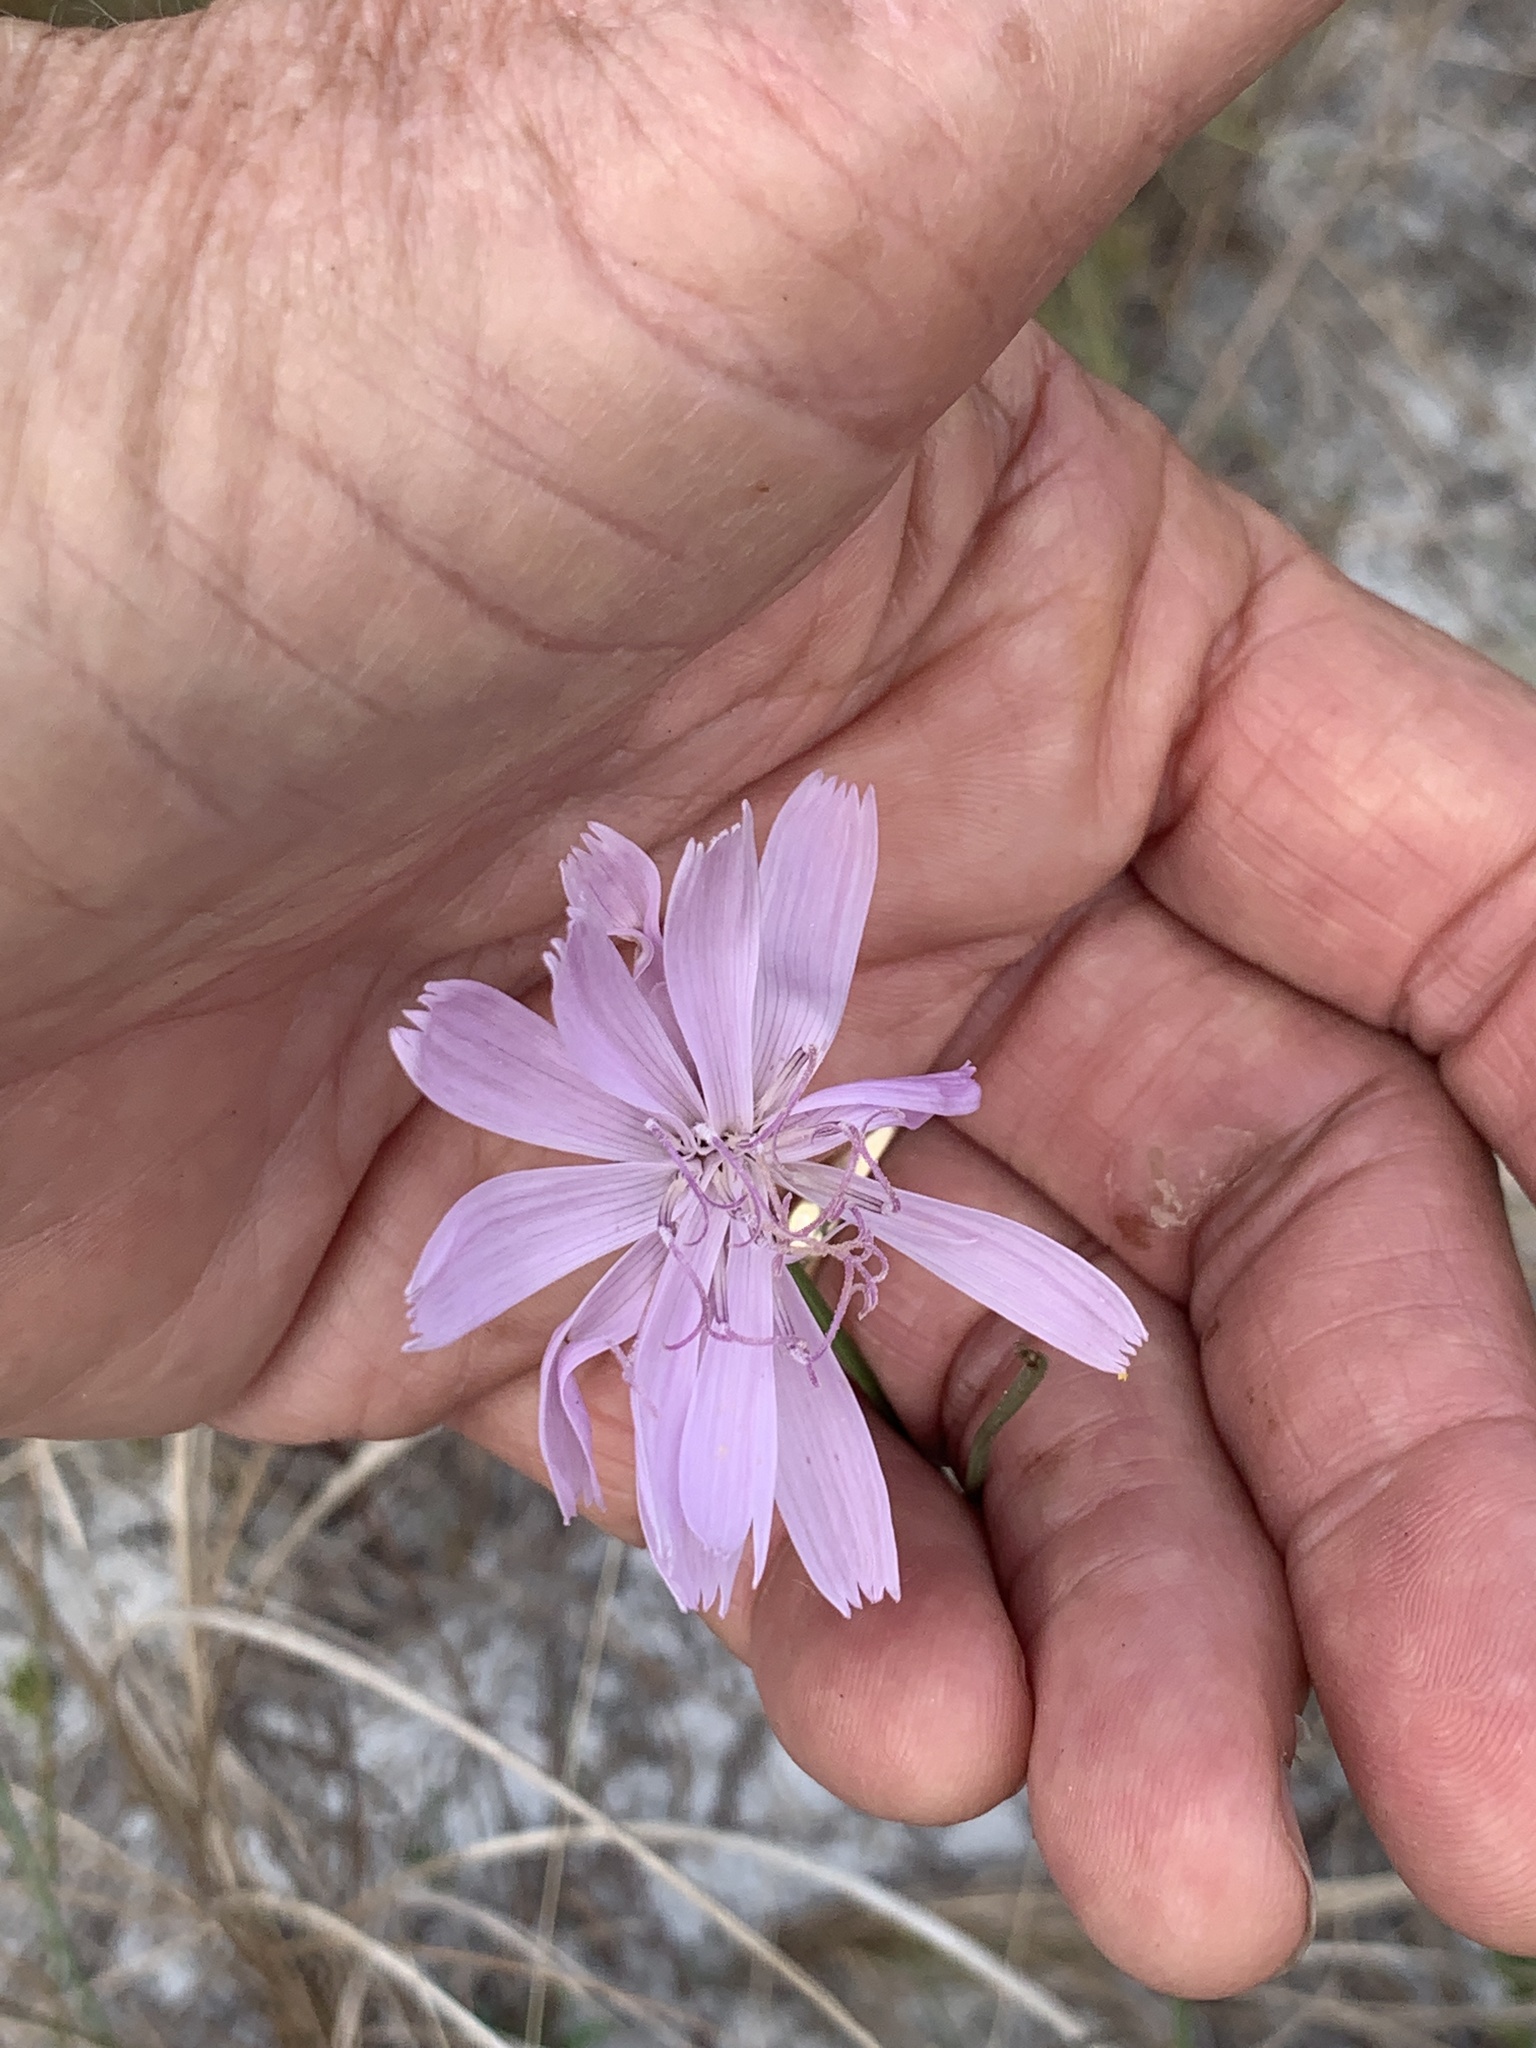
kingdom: Plantae
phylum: Tracheophyta
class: Magnoliopsida
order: Asterales
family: Asteraceae
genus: Lygodesmia
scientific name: Lygodesmia aphylla
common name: Rose-rush
